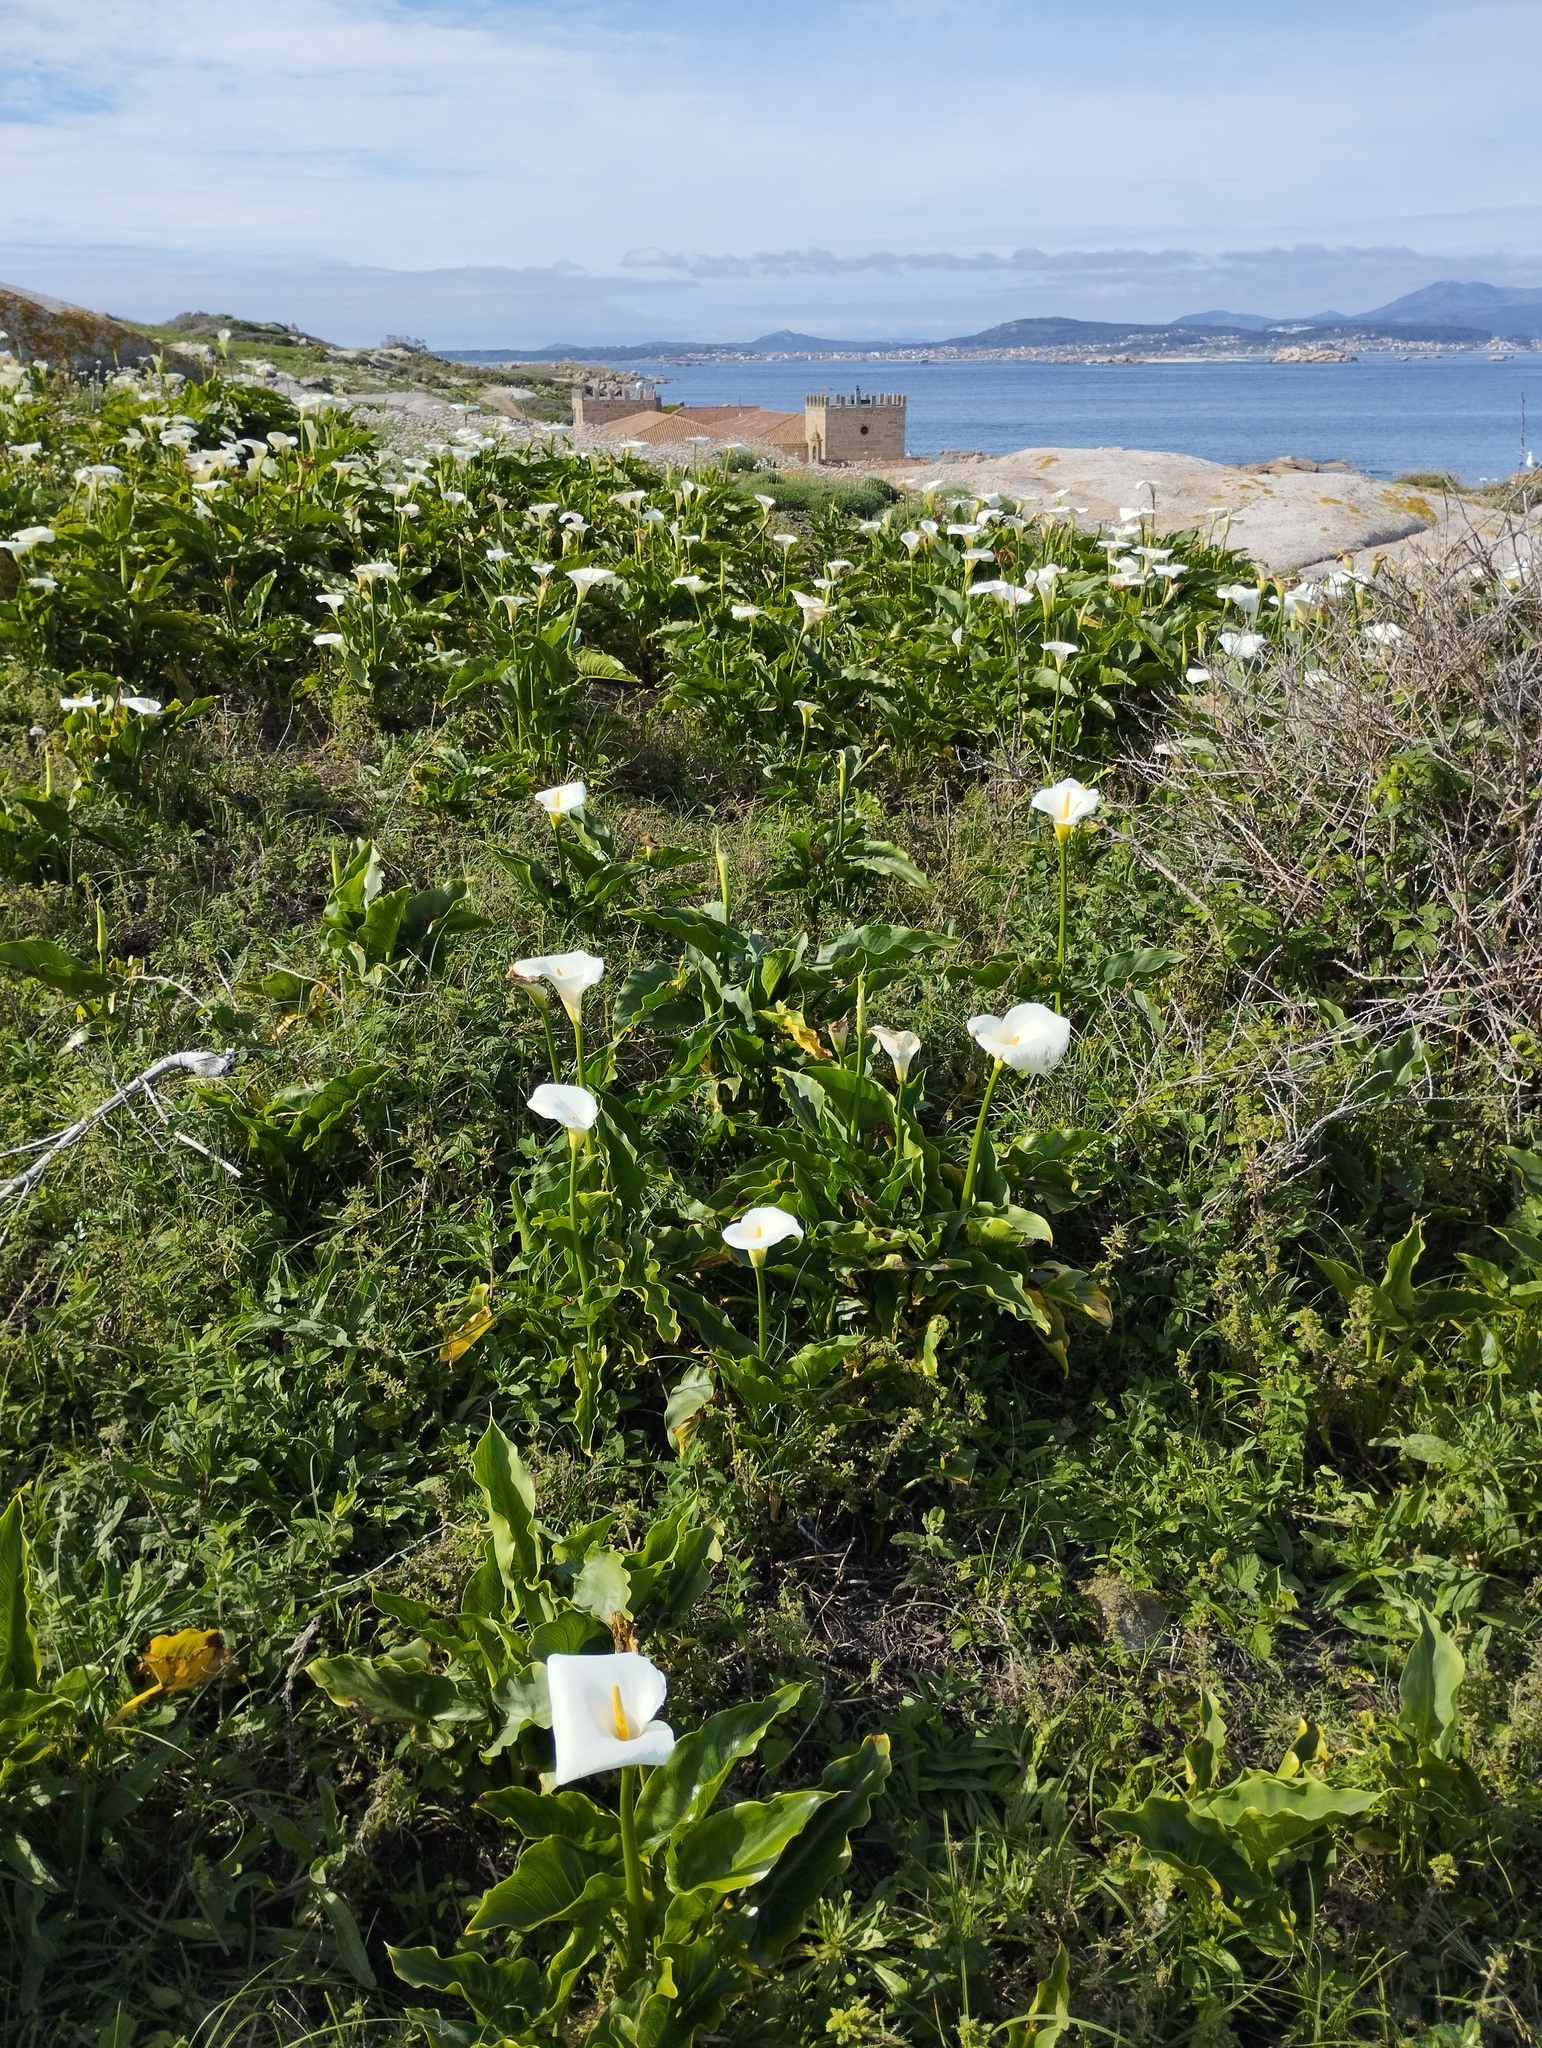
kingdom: Plantae
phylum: Tracheophyta
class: Liliopsida
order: Alismatales
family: Araceae
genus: Zantedeschia
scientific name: Zantedeschia aethiopica
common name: Altar-lily
